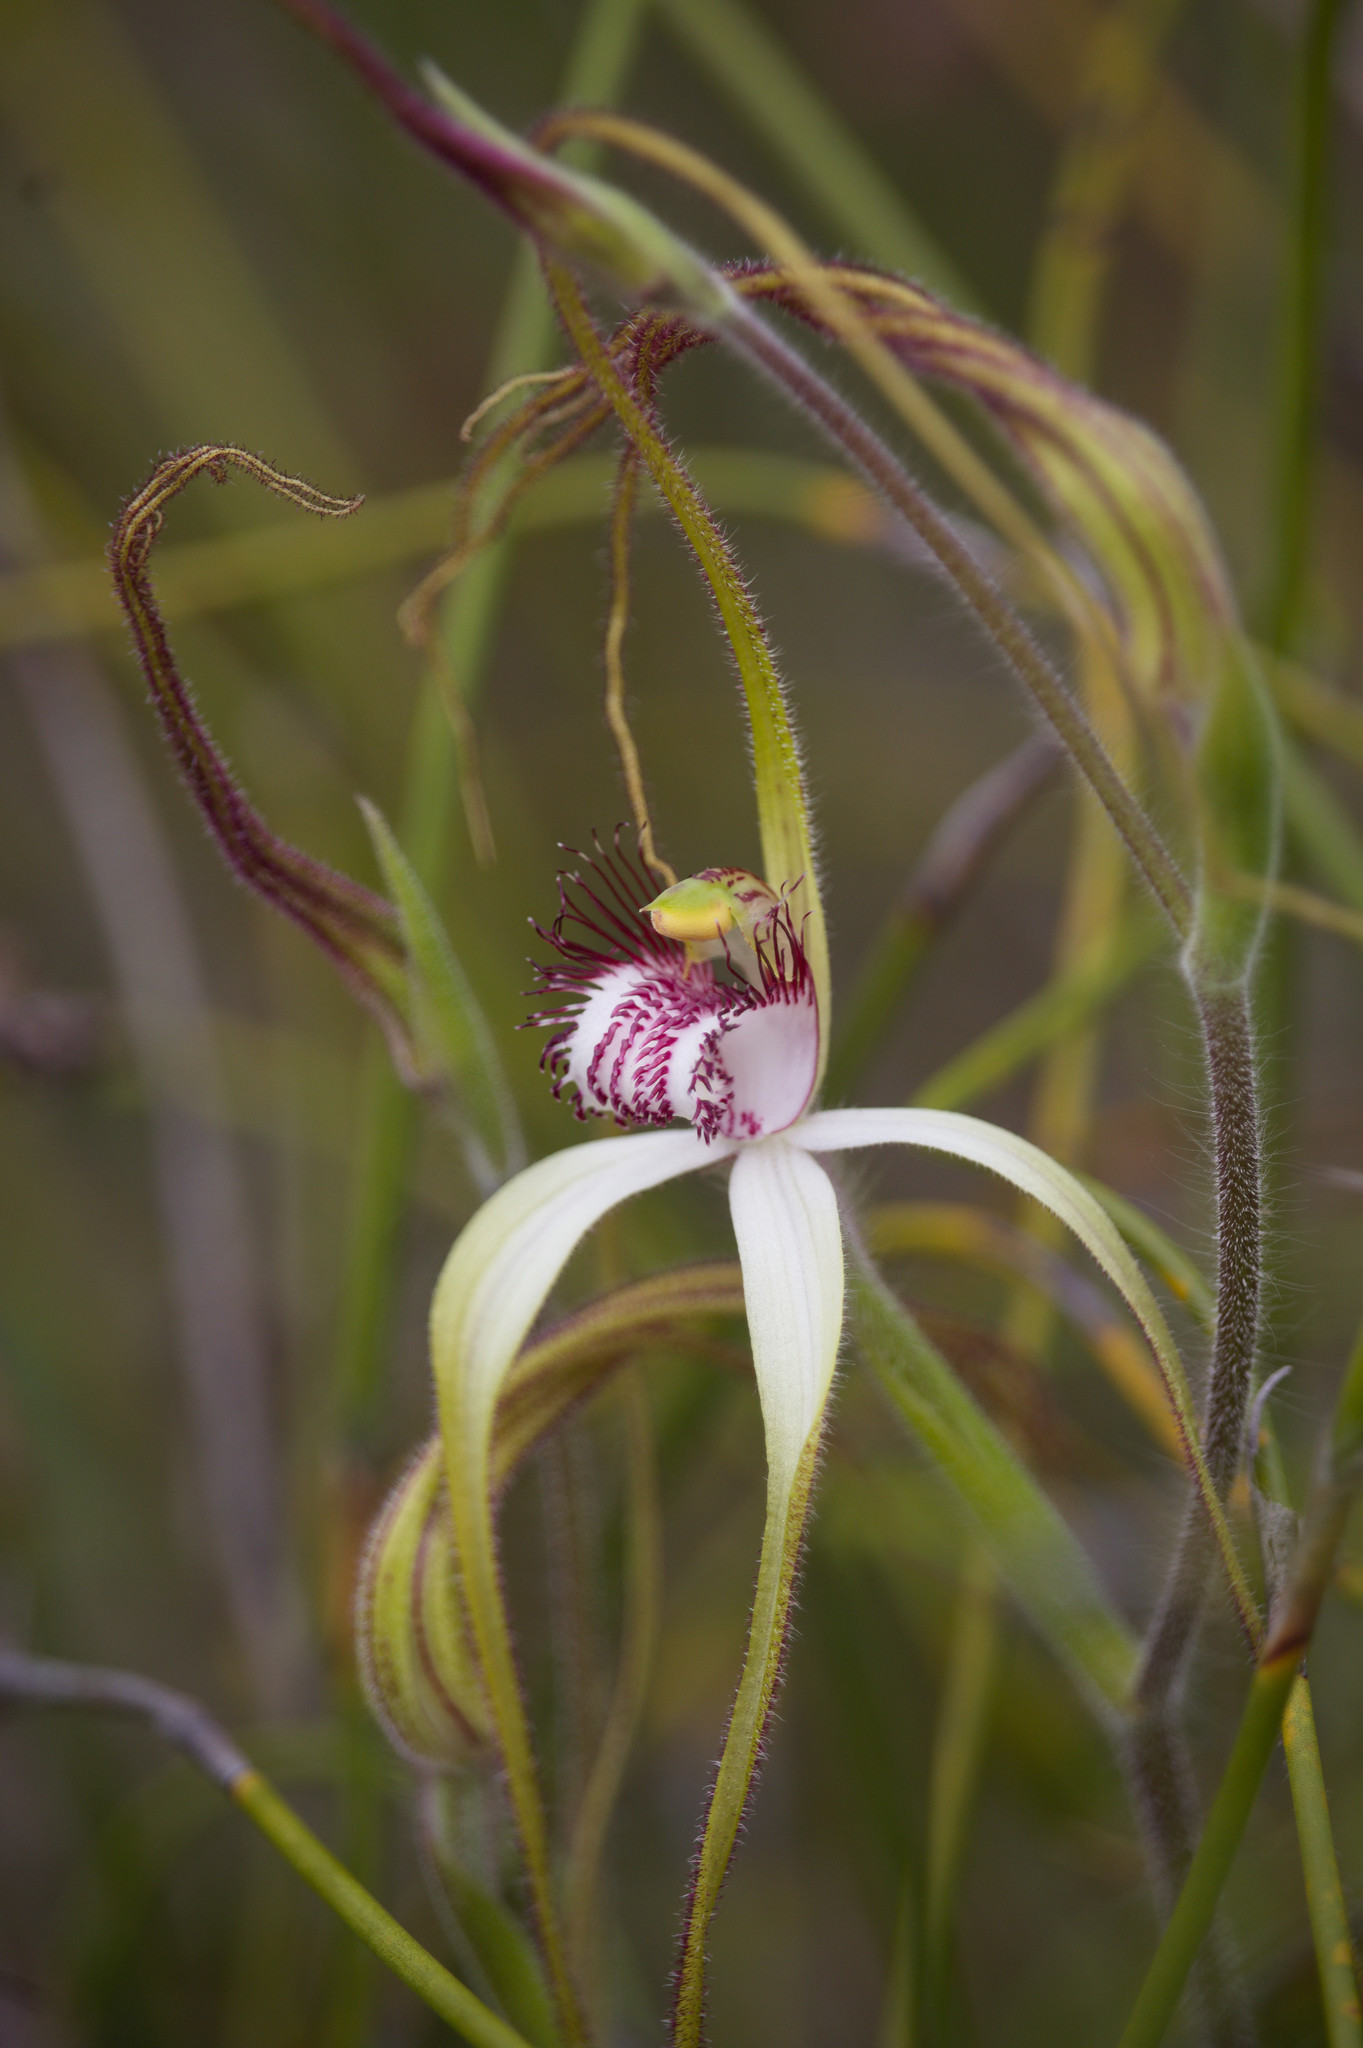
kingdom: Plantae
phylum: Tracheophyta
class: Liliopsida
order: Asparagales
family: Orchidaceae
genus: Caladenia
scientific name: Caladenia longicauda
